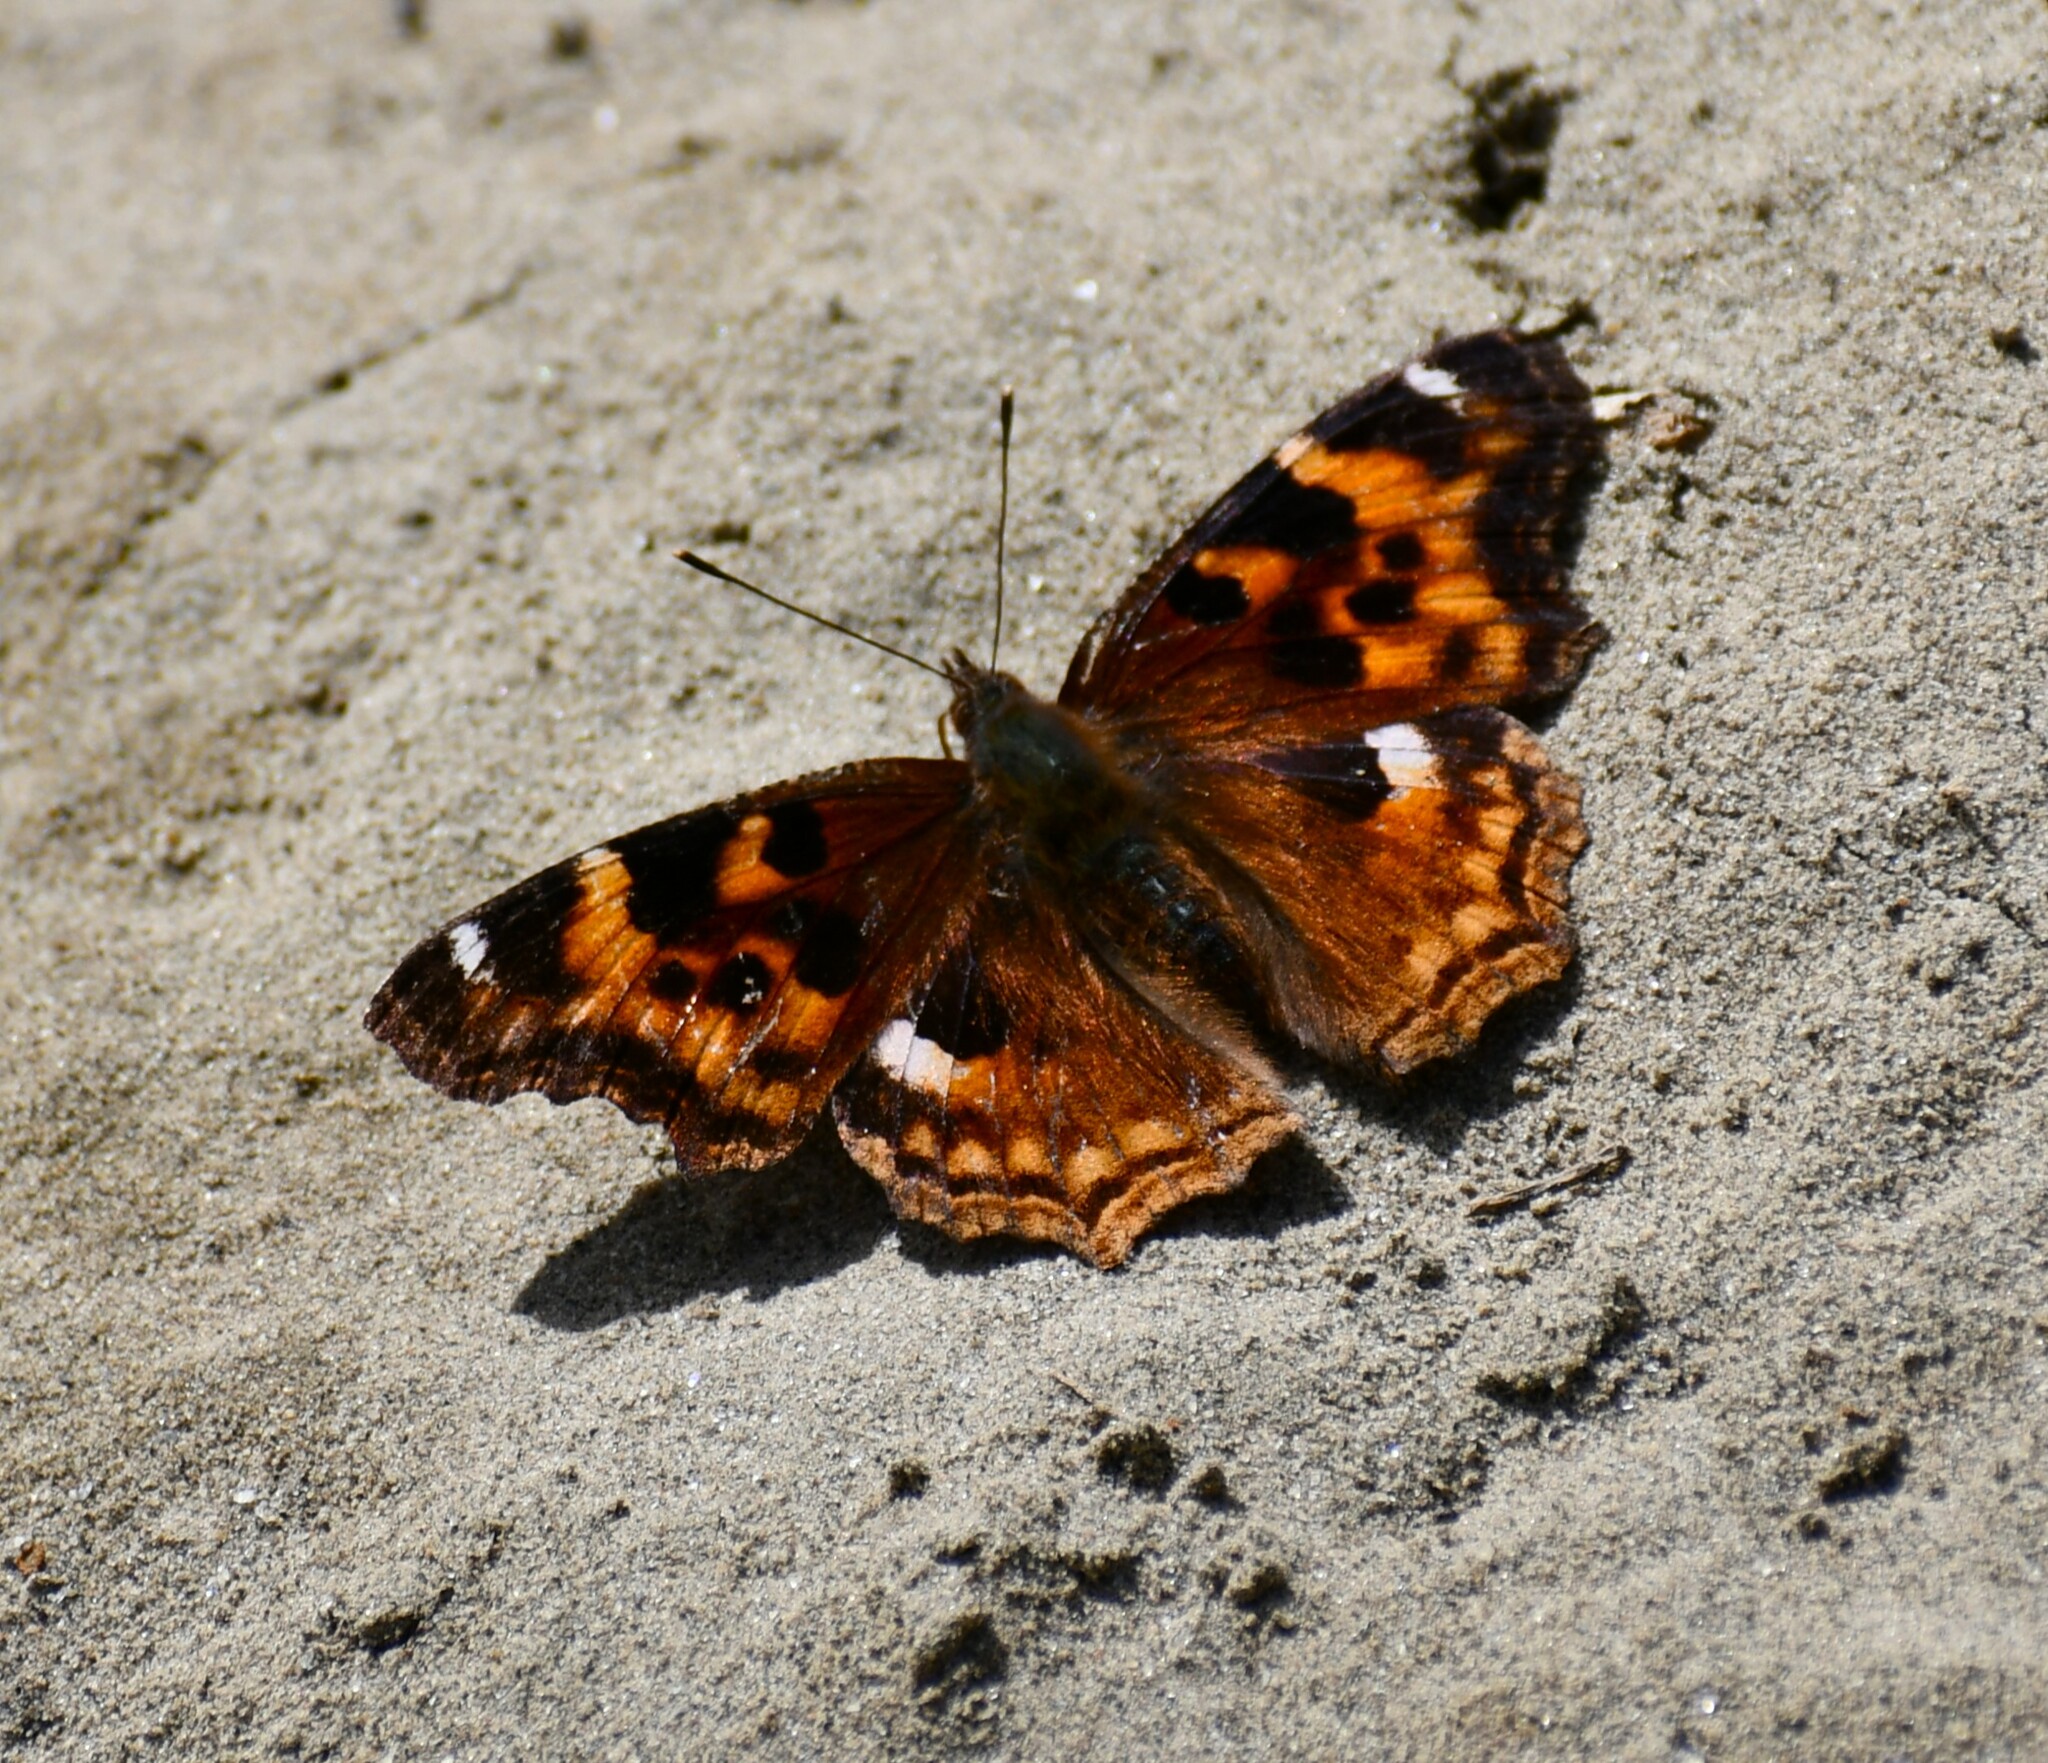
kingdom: Animalia
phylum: Arthropoda
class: Insecta
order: Lepidoptera
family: Nymphalidae
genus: Polygonia
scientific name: Polygonia vaualbum
